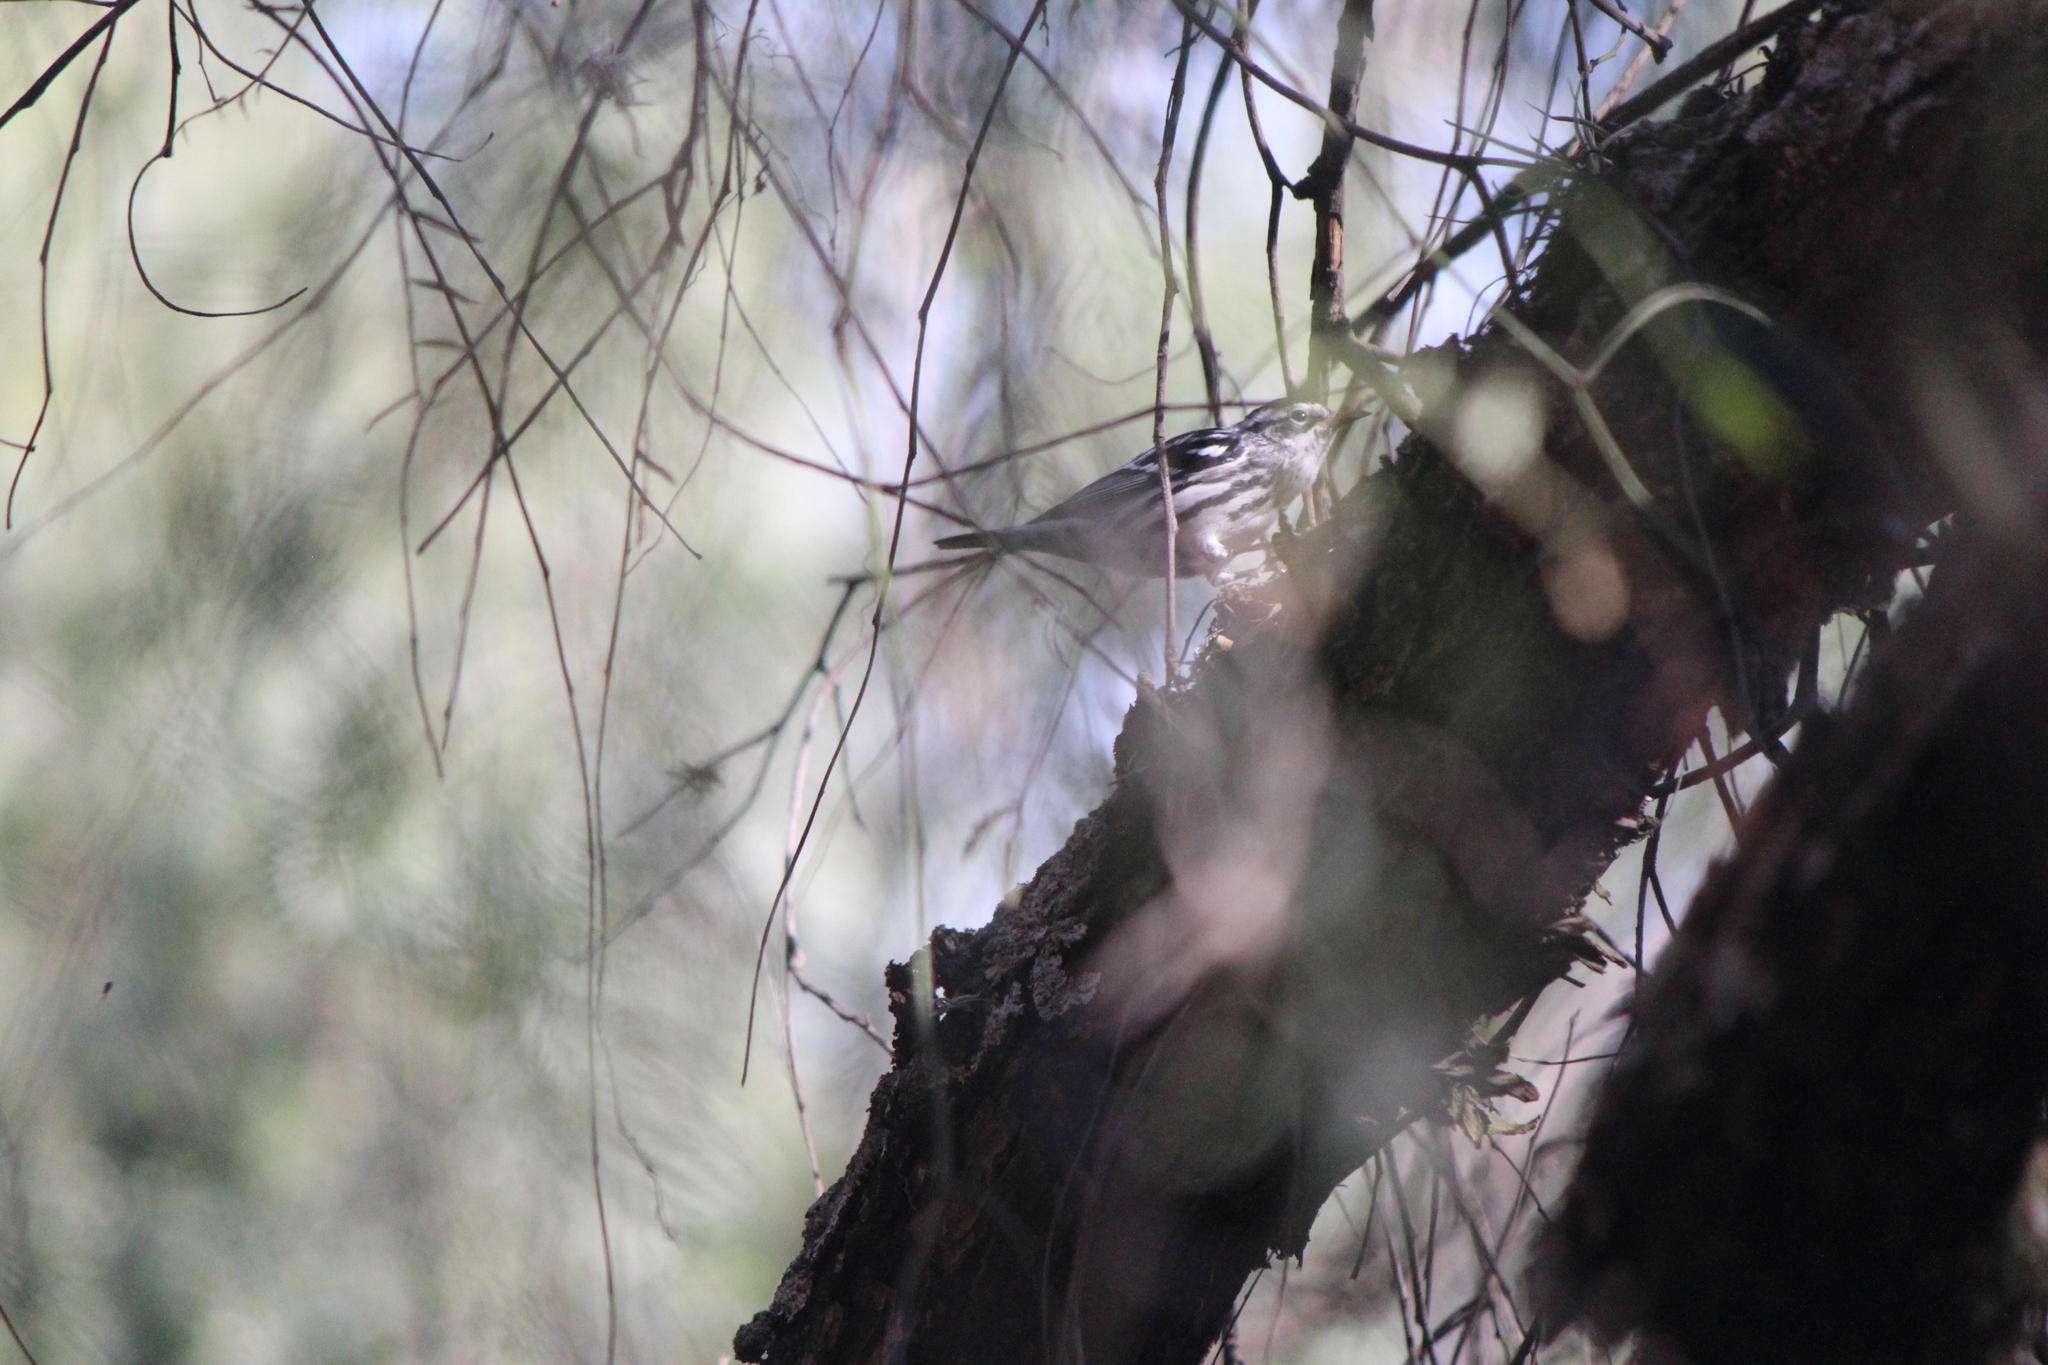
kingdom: Animalia
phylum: Chordata
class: Aves
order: Passeriformes
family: Parulidae
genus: Mniotilta
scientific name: Mniotilta varia
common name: Black-and-white warbler
